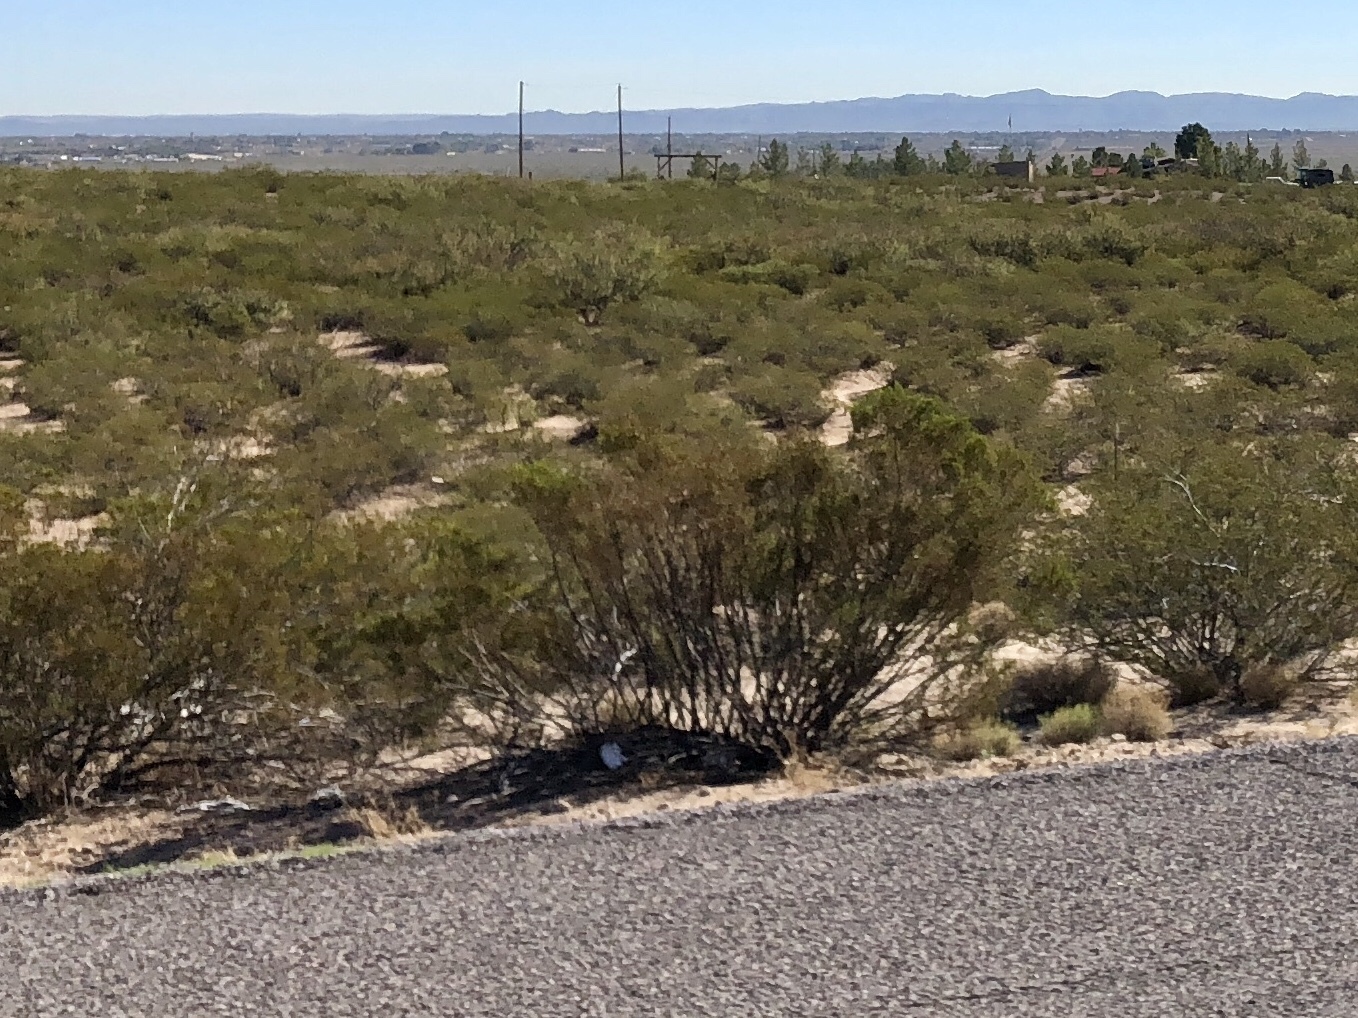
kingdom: Plantae
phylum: Tracheophyta
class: Magnoliopsida
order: Zygophyllales
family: Zygophyllaceae
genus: Larrea
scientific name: Larrea tridentata
